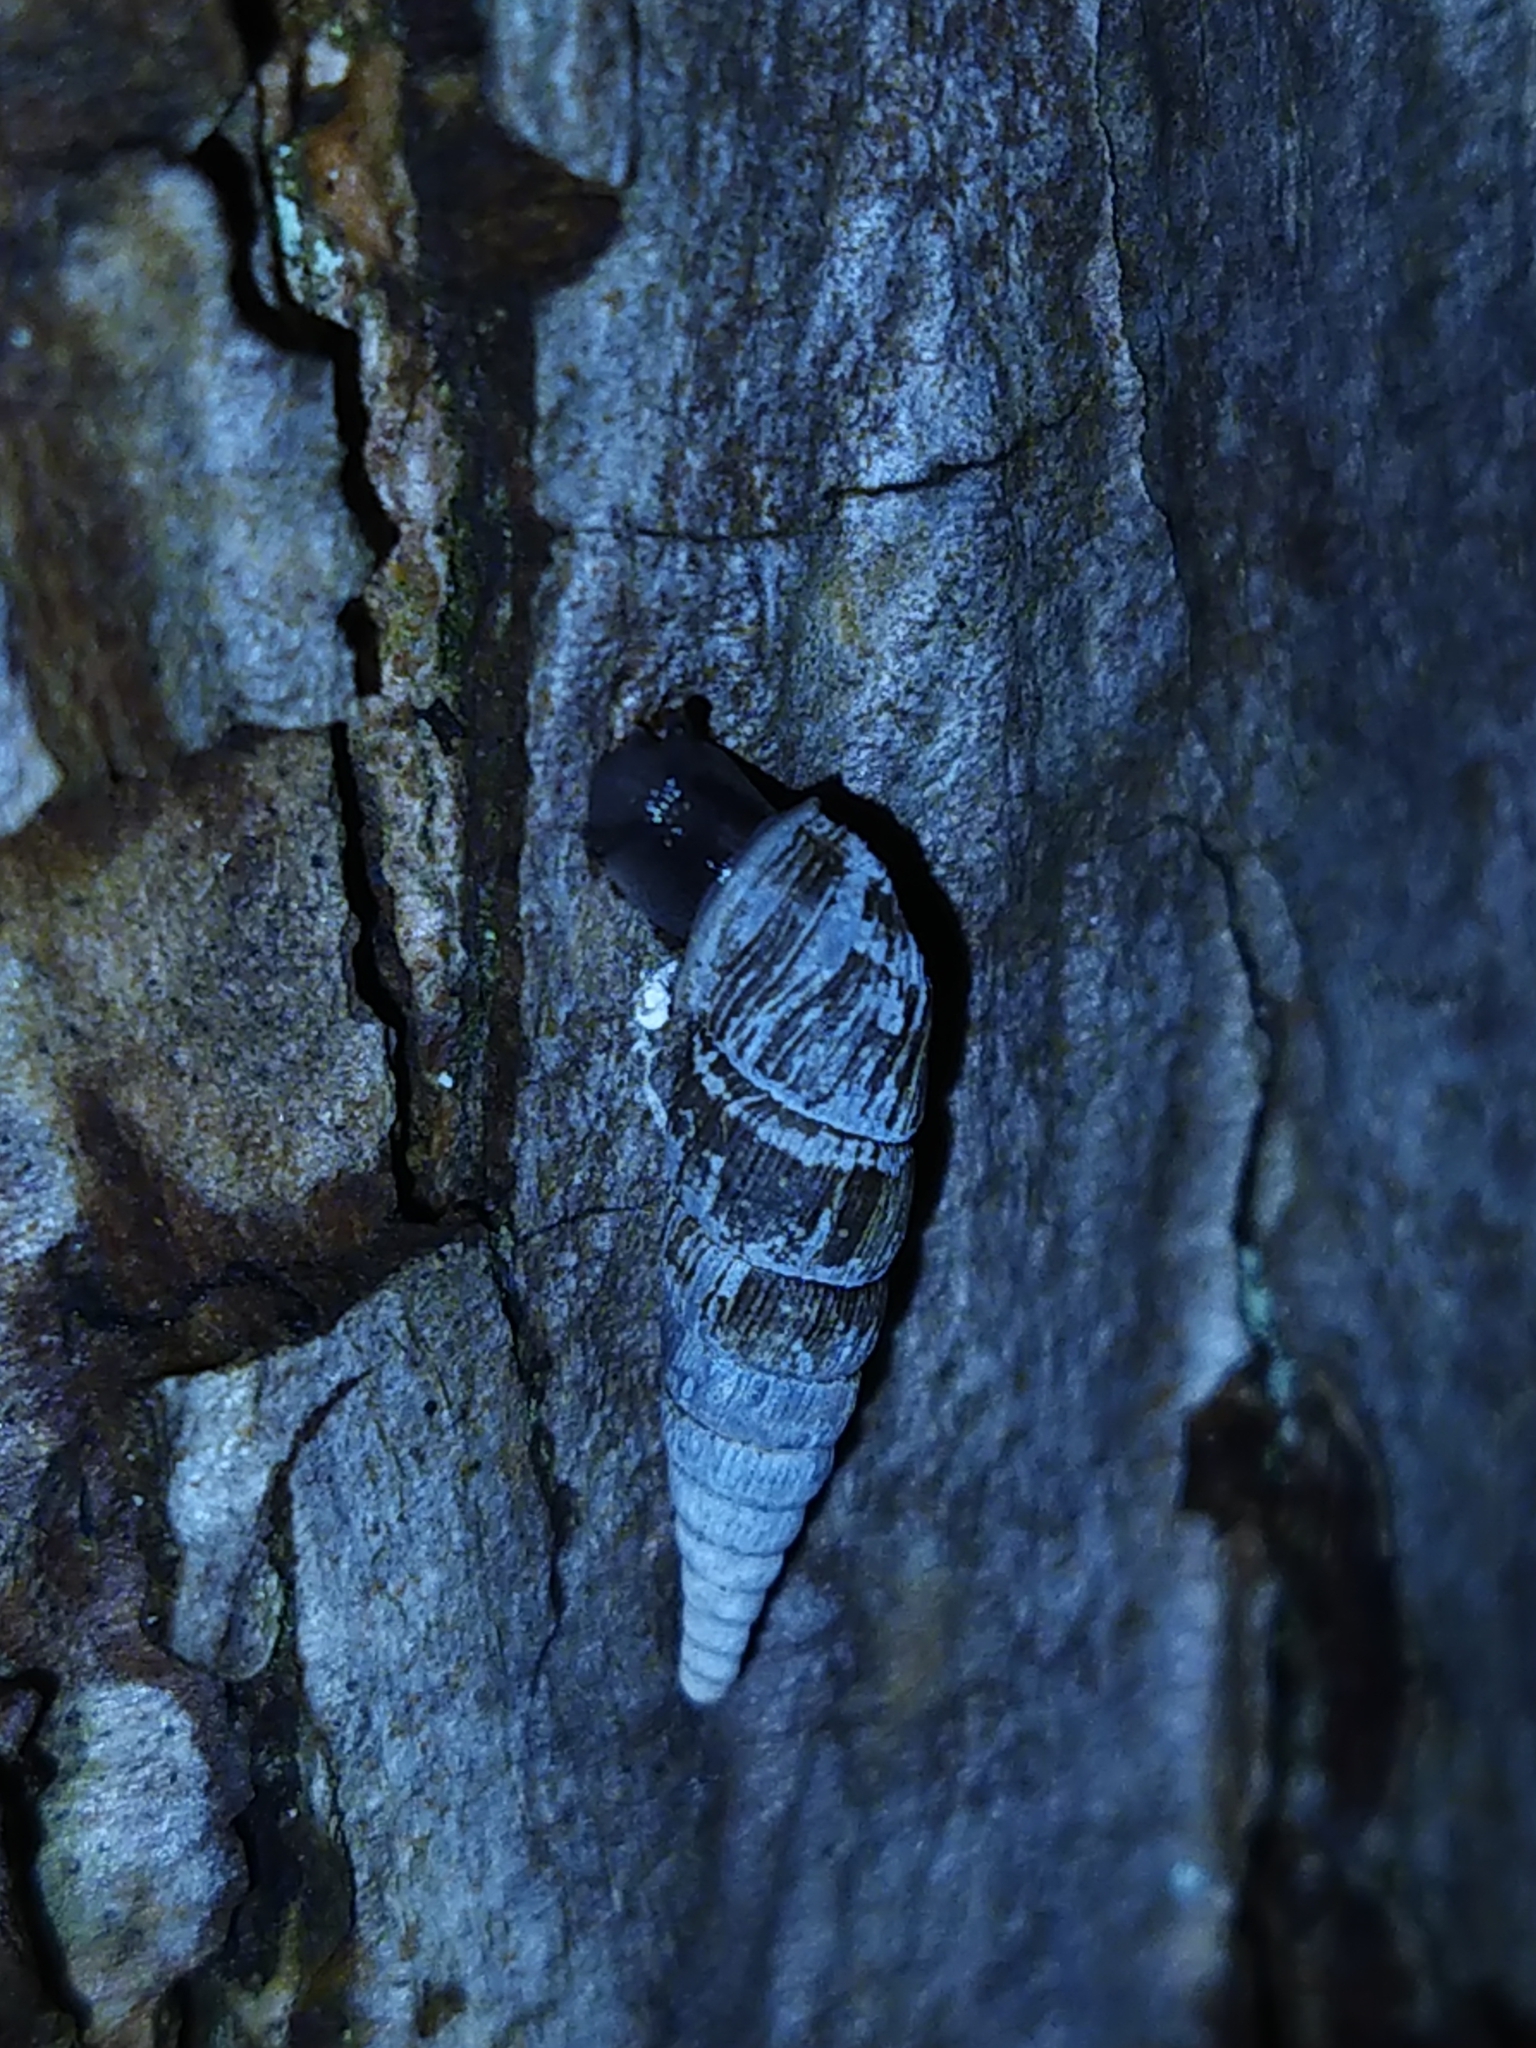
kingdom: Animalia
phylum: Mollusca
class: Gastropoda
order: Stylommatophora
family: Clausiliidae
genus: Alinda
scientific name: Alinda biplicata
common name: Thames door snail
